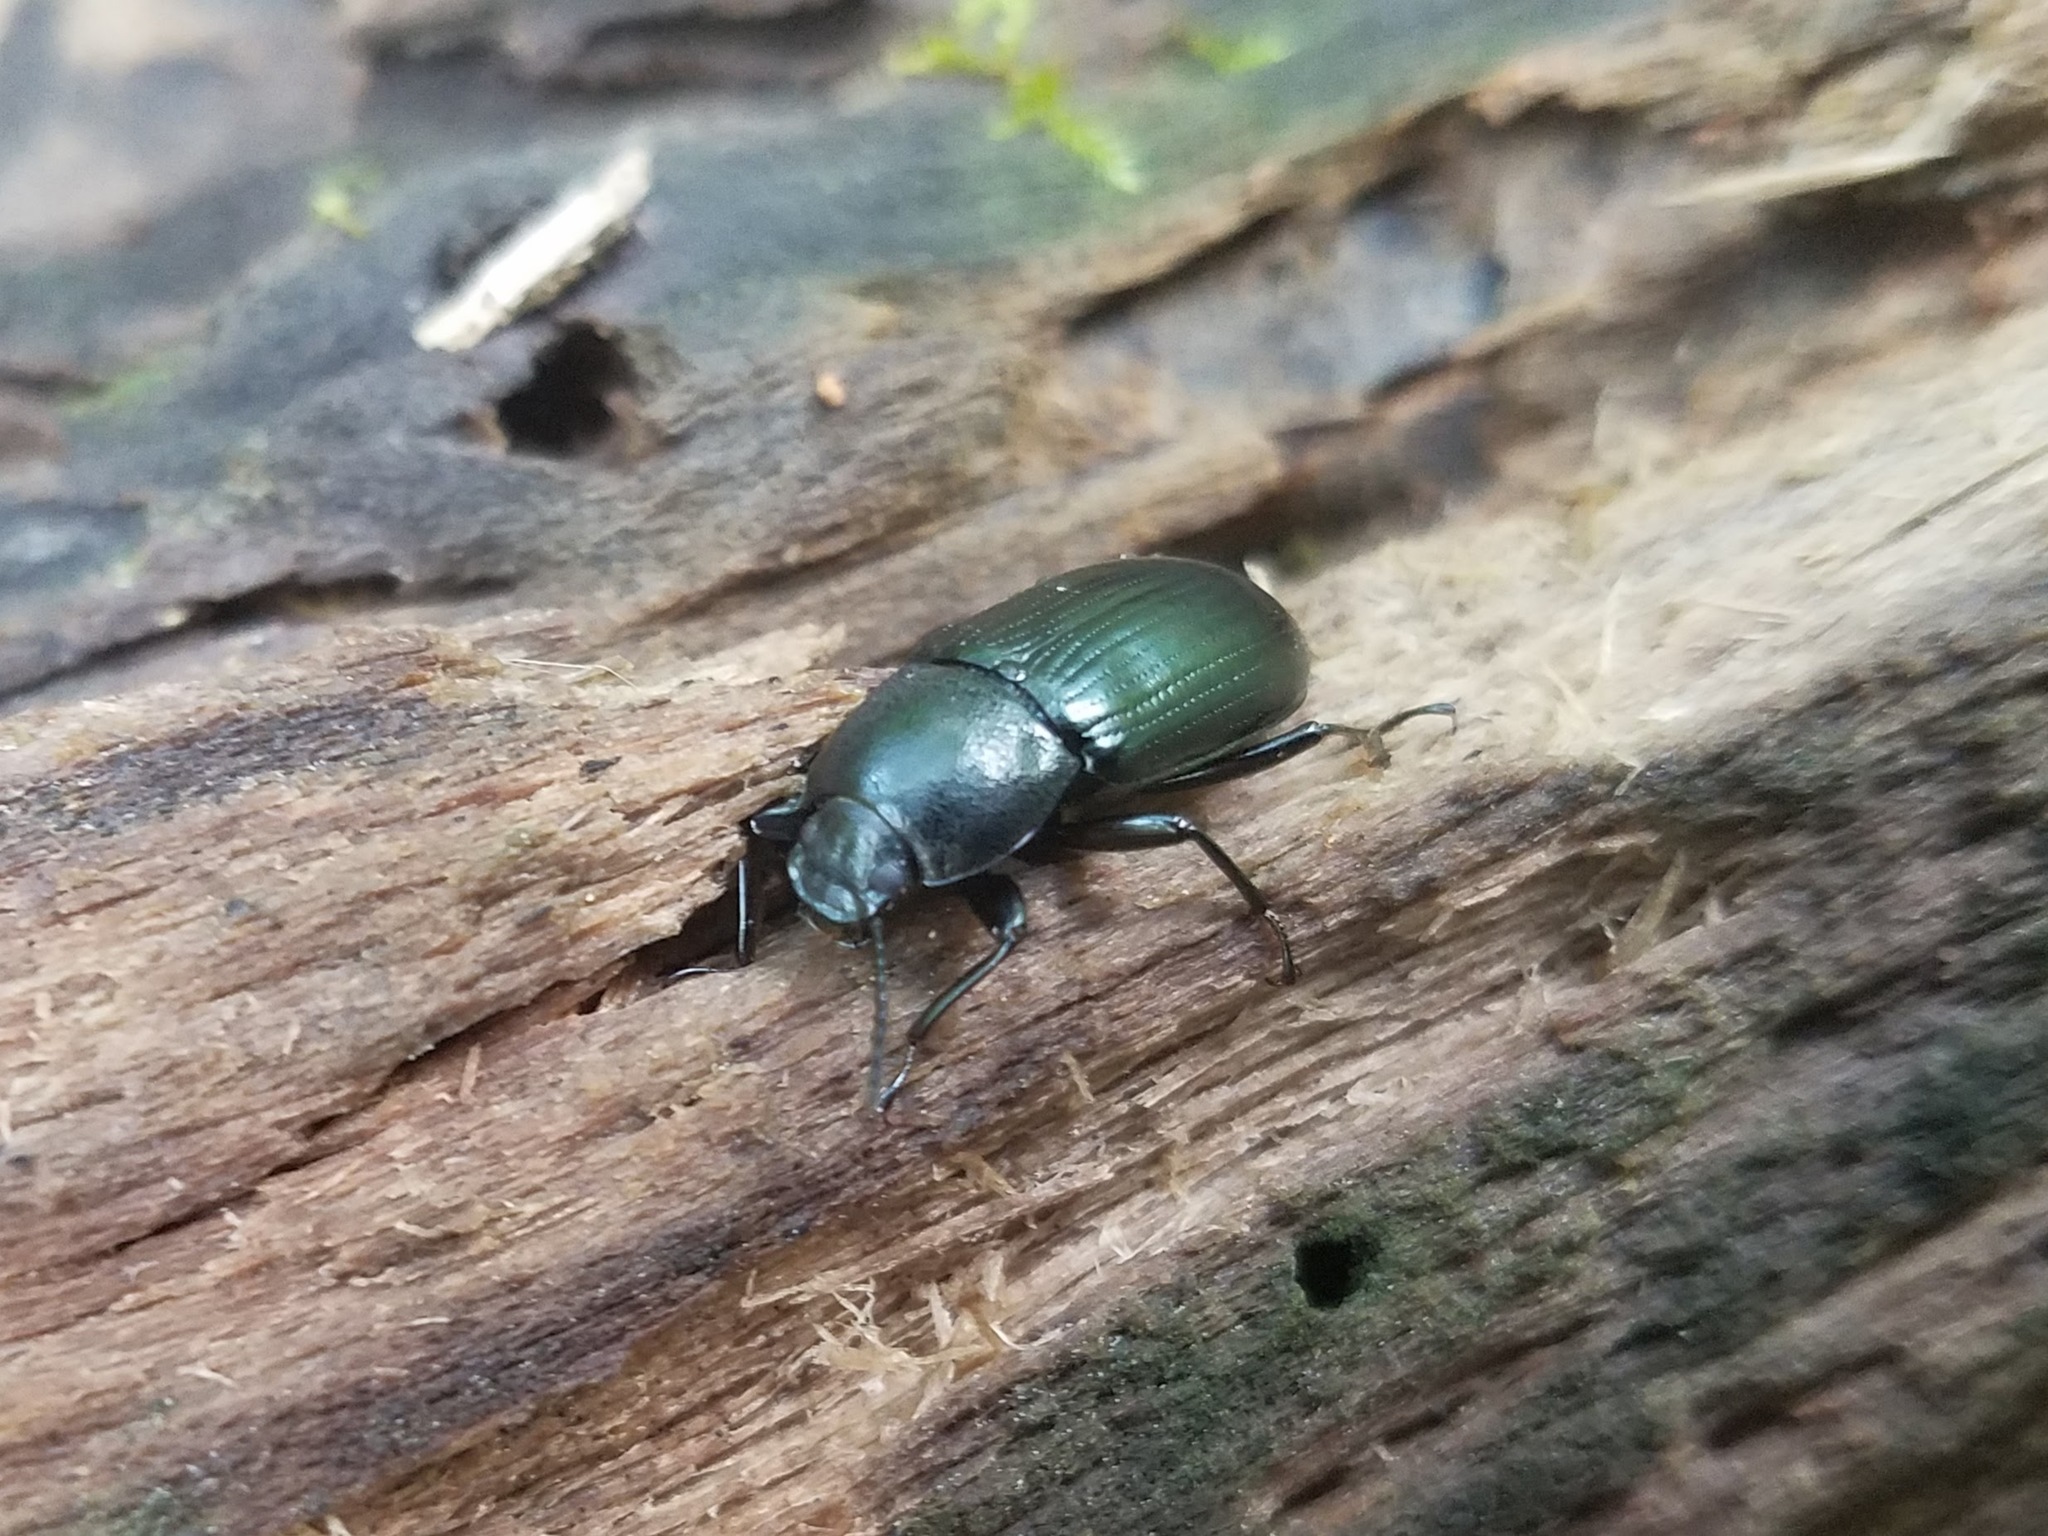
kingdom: Animalia
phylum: Arthropoda
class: Insecta
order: Coleoptera
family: Tenebrionidae
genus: Centronopus
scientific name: Centronopus calcaratus
